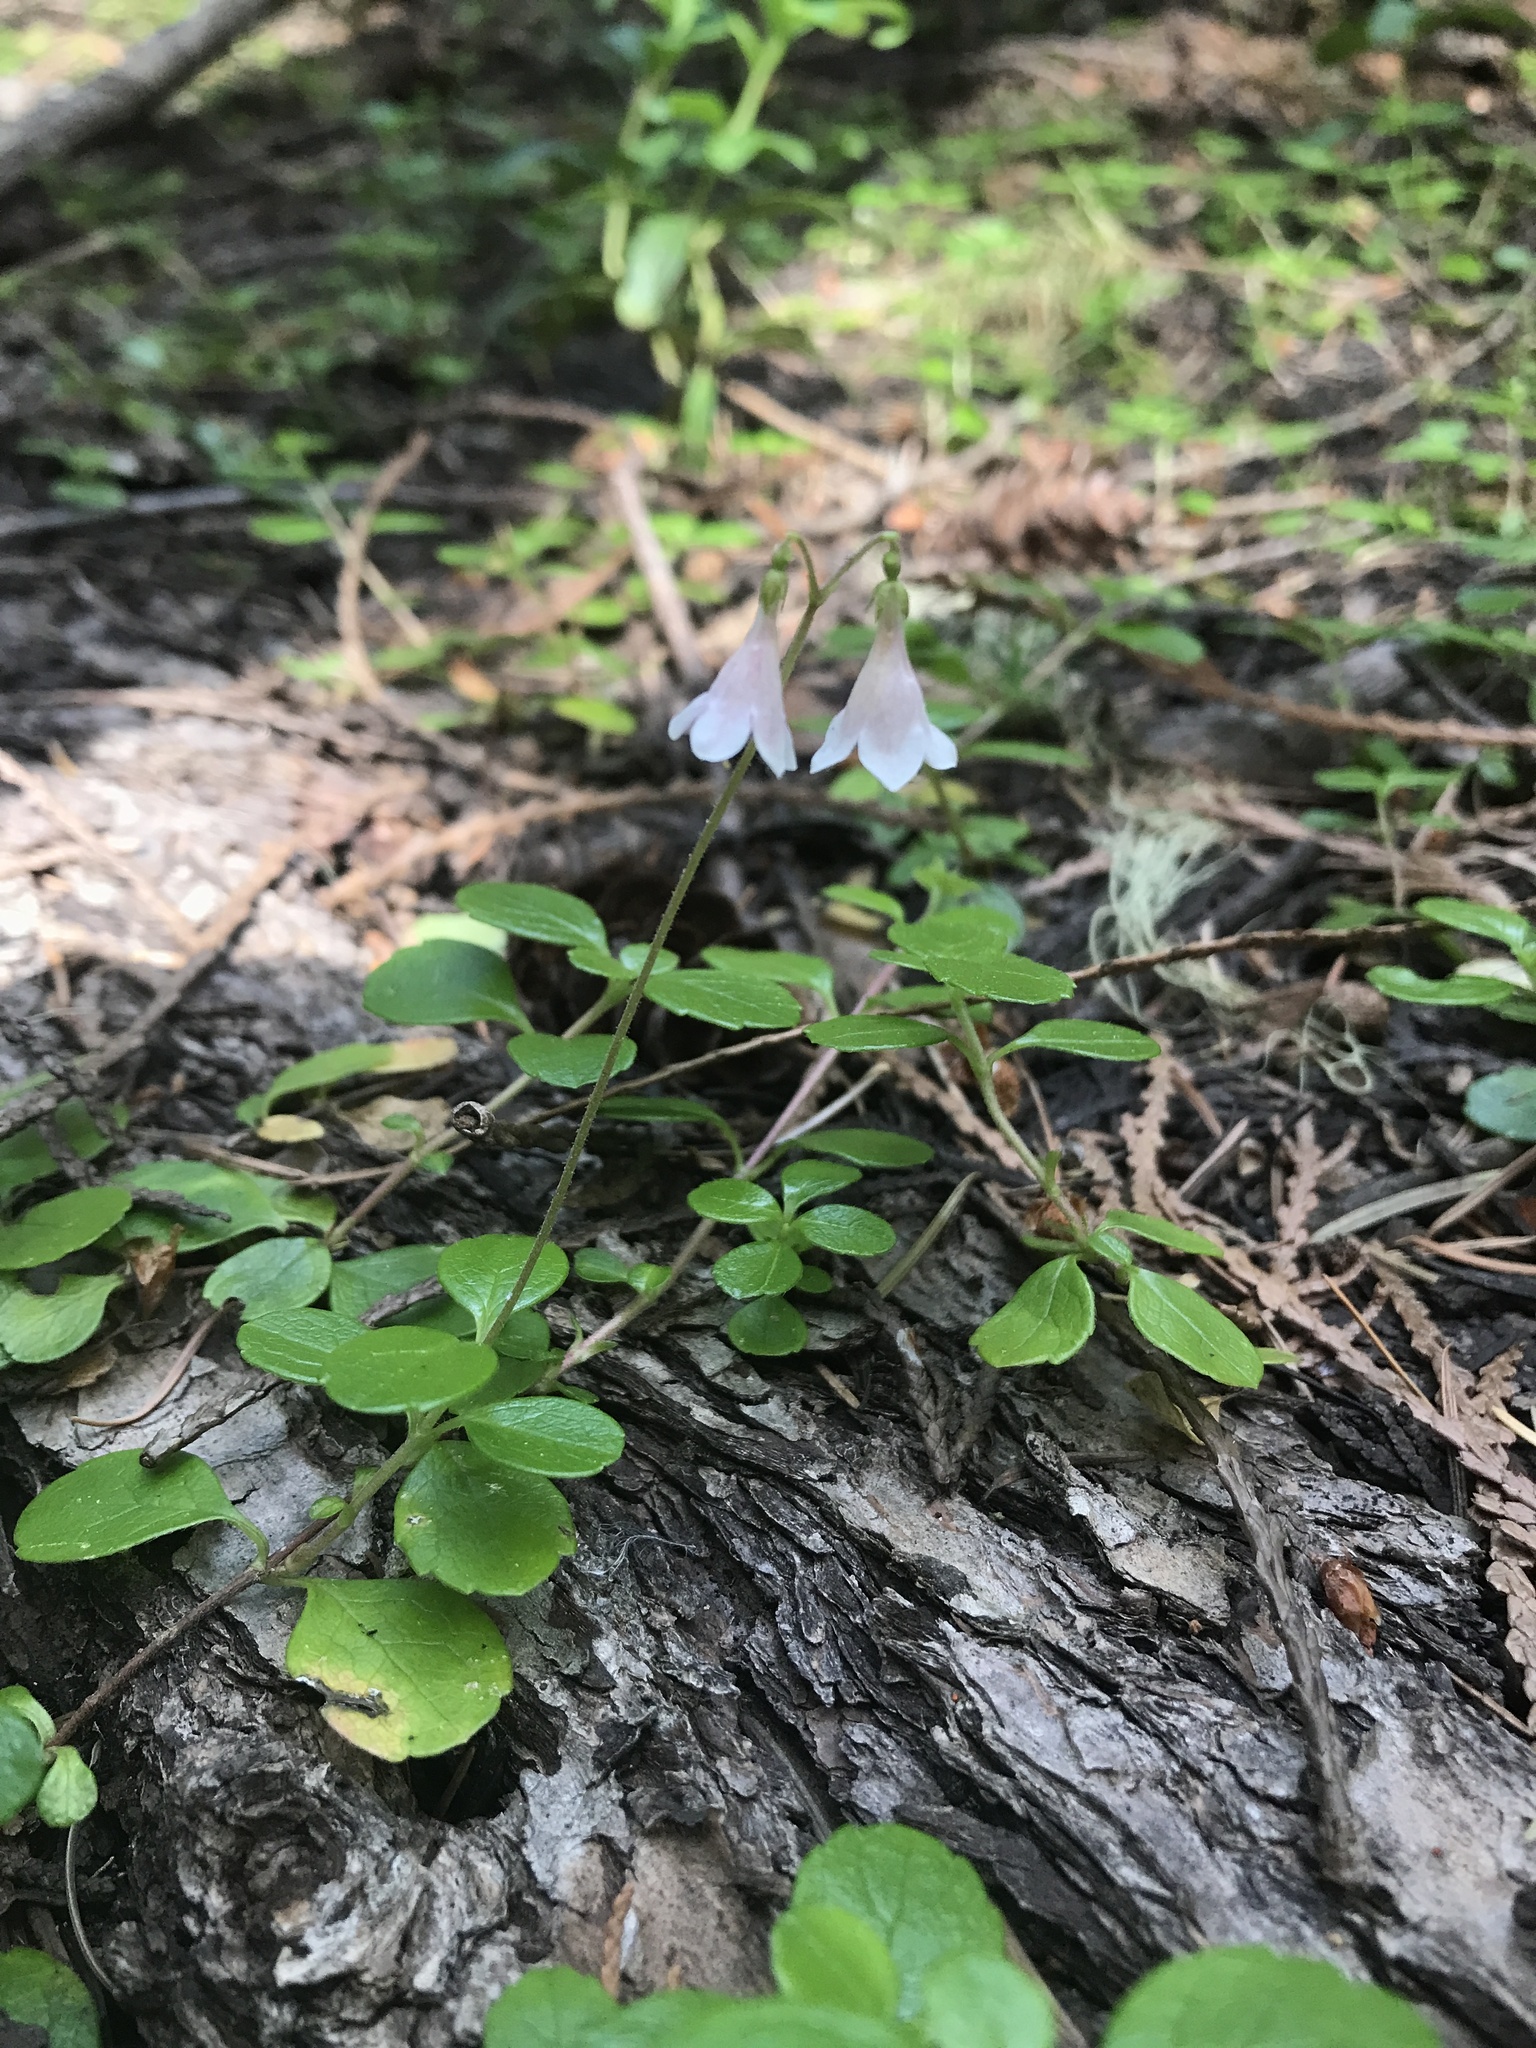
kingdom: Plantae
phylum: Tracheophyta
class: Magnoliopsida
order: Dipsacales
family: Caprifoliaceae
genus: Linnaea
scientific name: Linnaea borealis
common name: Twinflower
